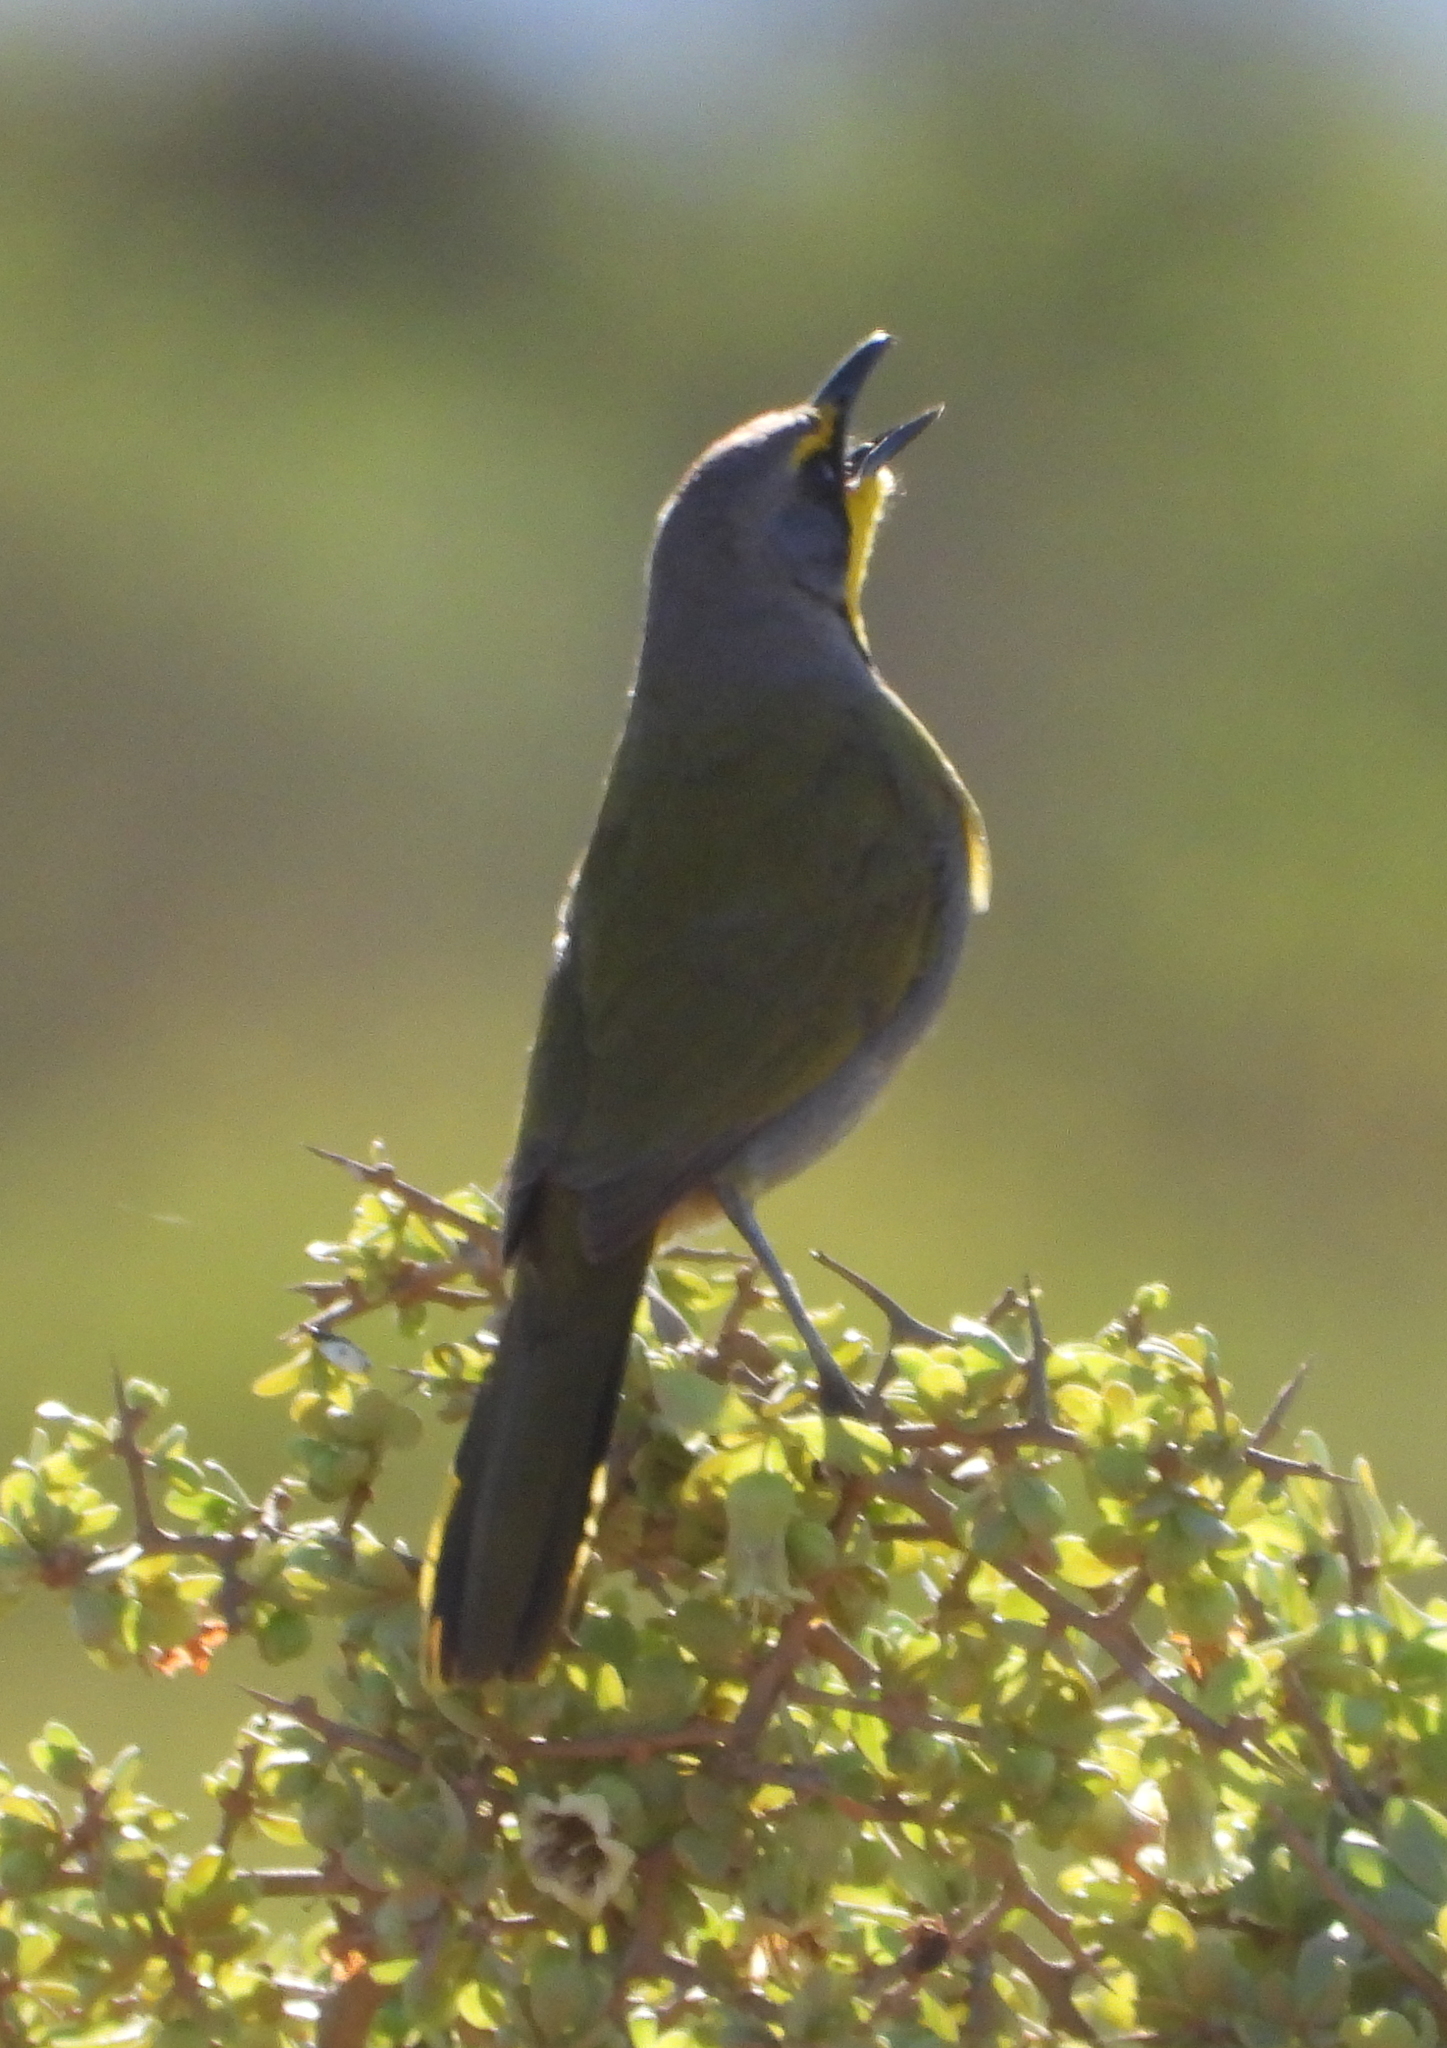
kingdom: Animalia
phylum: Chordata
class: Aves
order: Passeriformes
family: Malaconotidae
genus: Telophorus
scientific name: Telophorus zeylonus
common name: Bokmakierie
